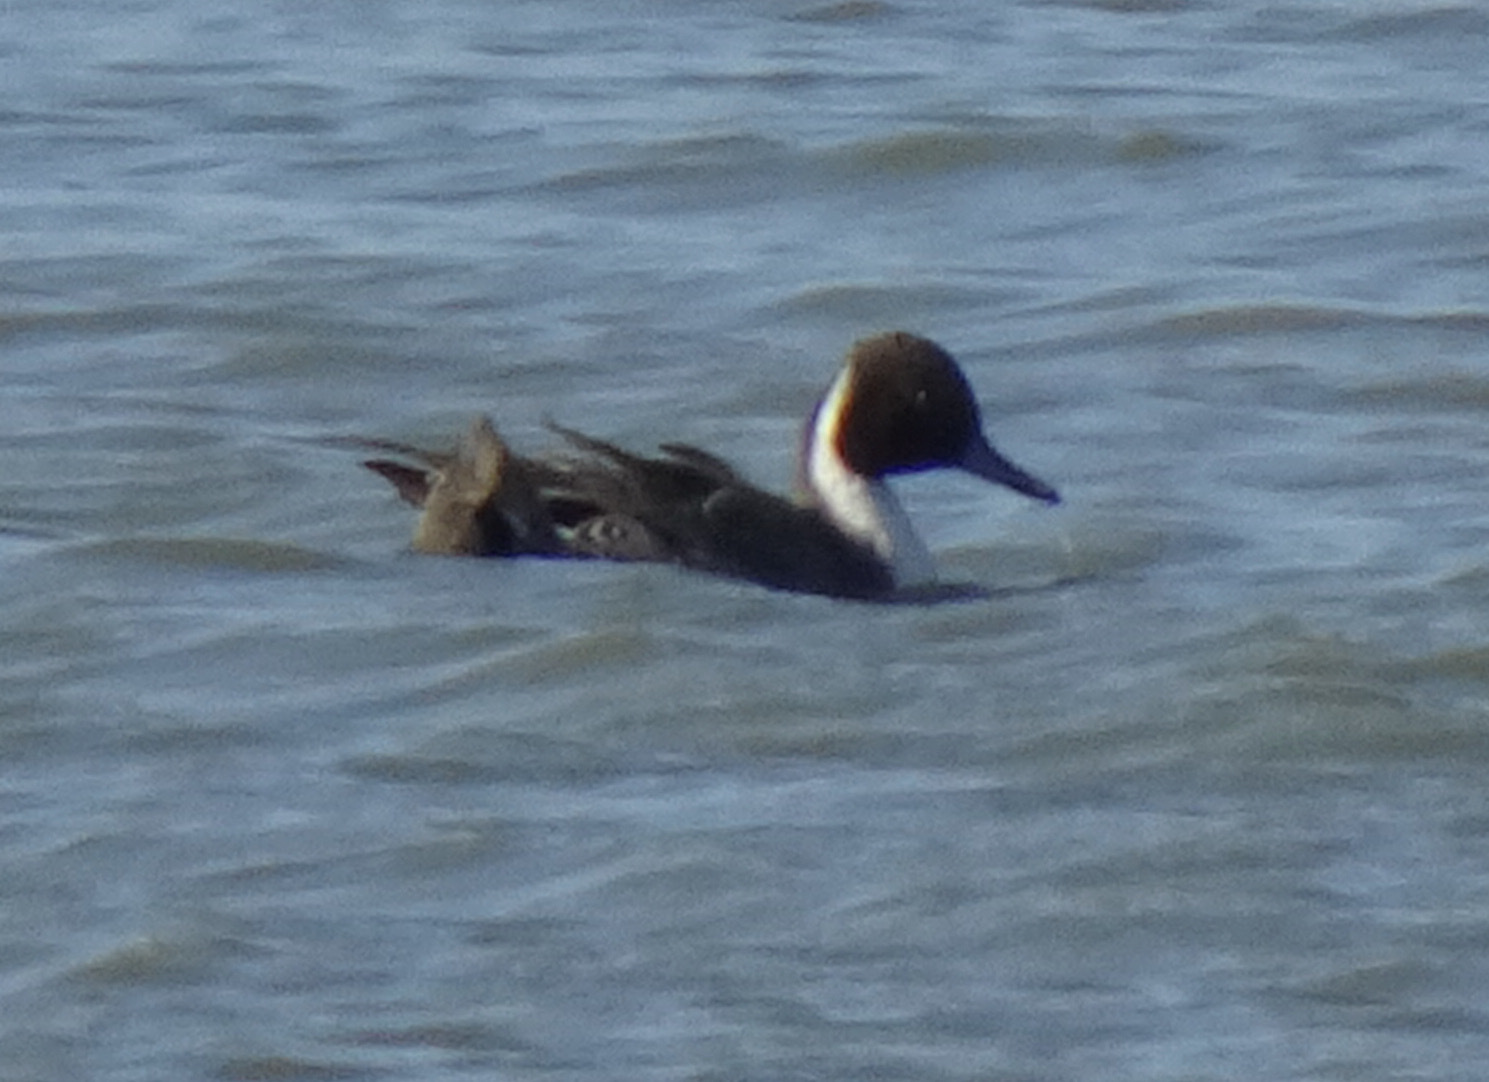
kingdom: Animalia
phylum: Chordata
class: Aves
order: Anseriformes
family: Anatidae
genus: Anas
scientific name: Anas acuta
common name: Northern pintail
